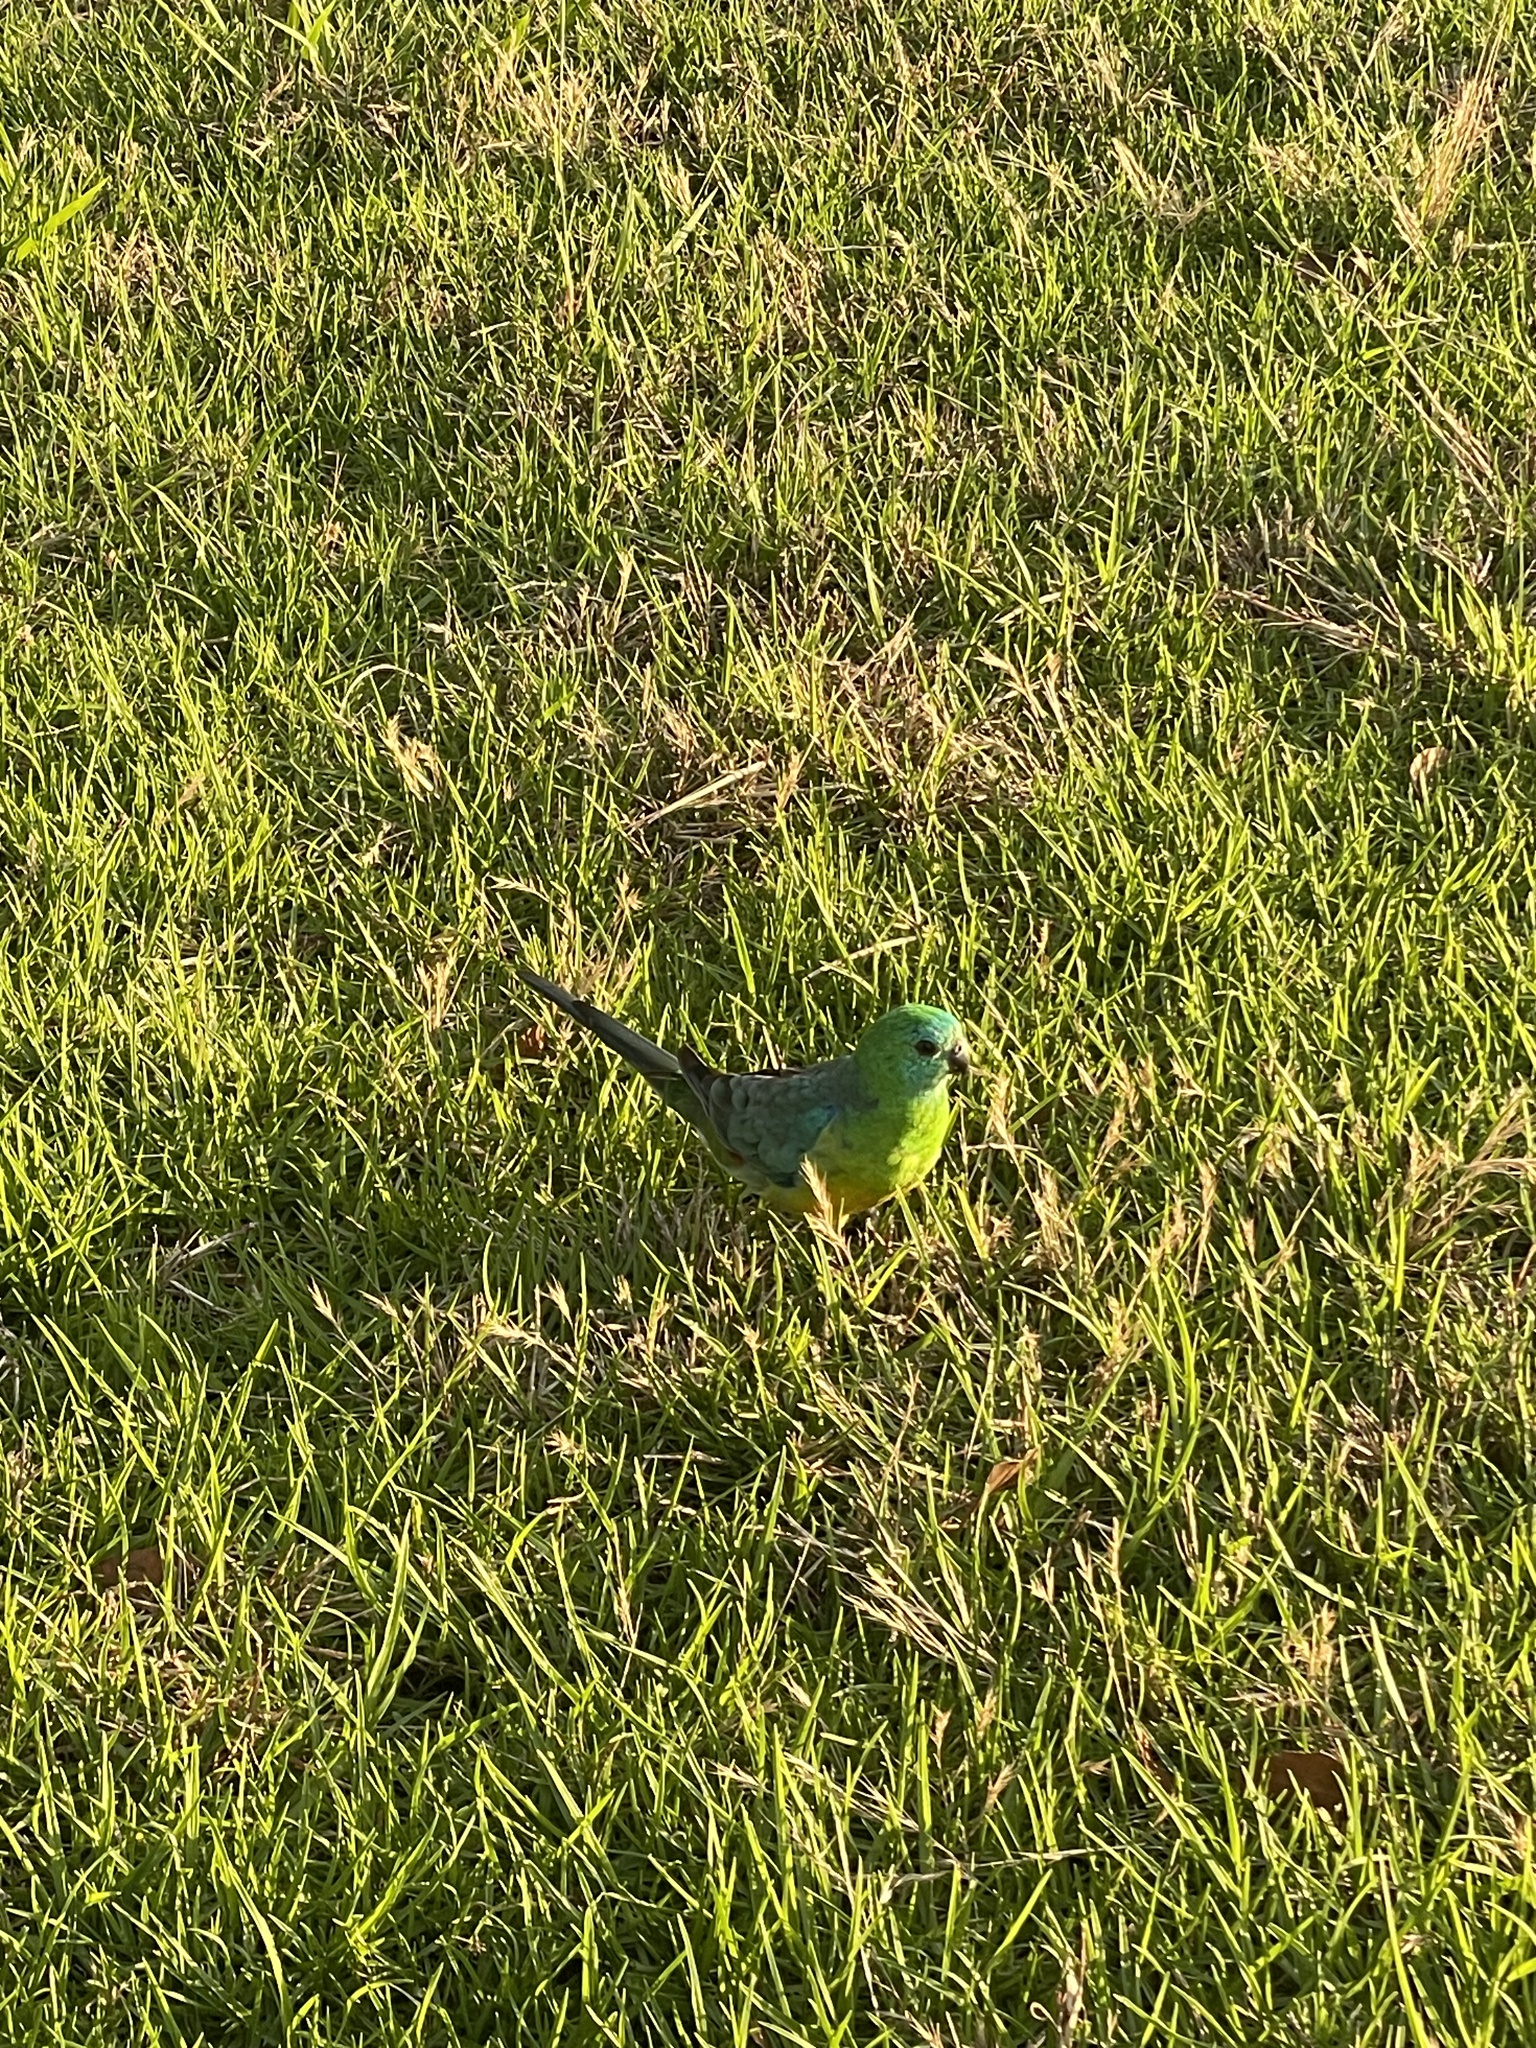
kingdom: Animalia
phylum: Chordata
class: Aves
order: Psittaciformes
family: Psittacidae
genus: Psephotus
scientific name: Psephotus haematonotus
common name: Red-rumped parrot
